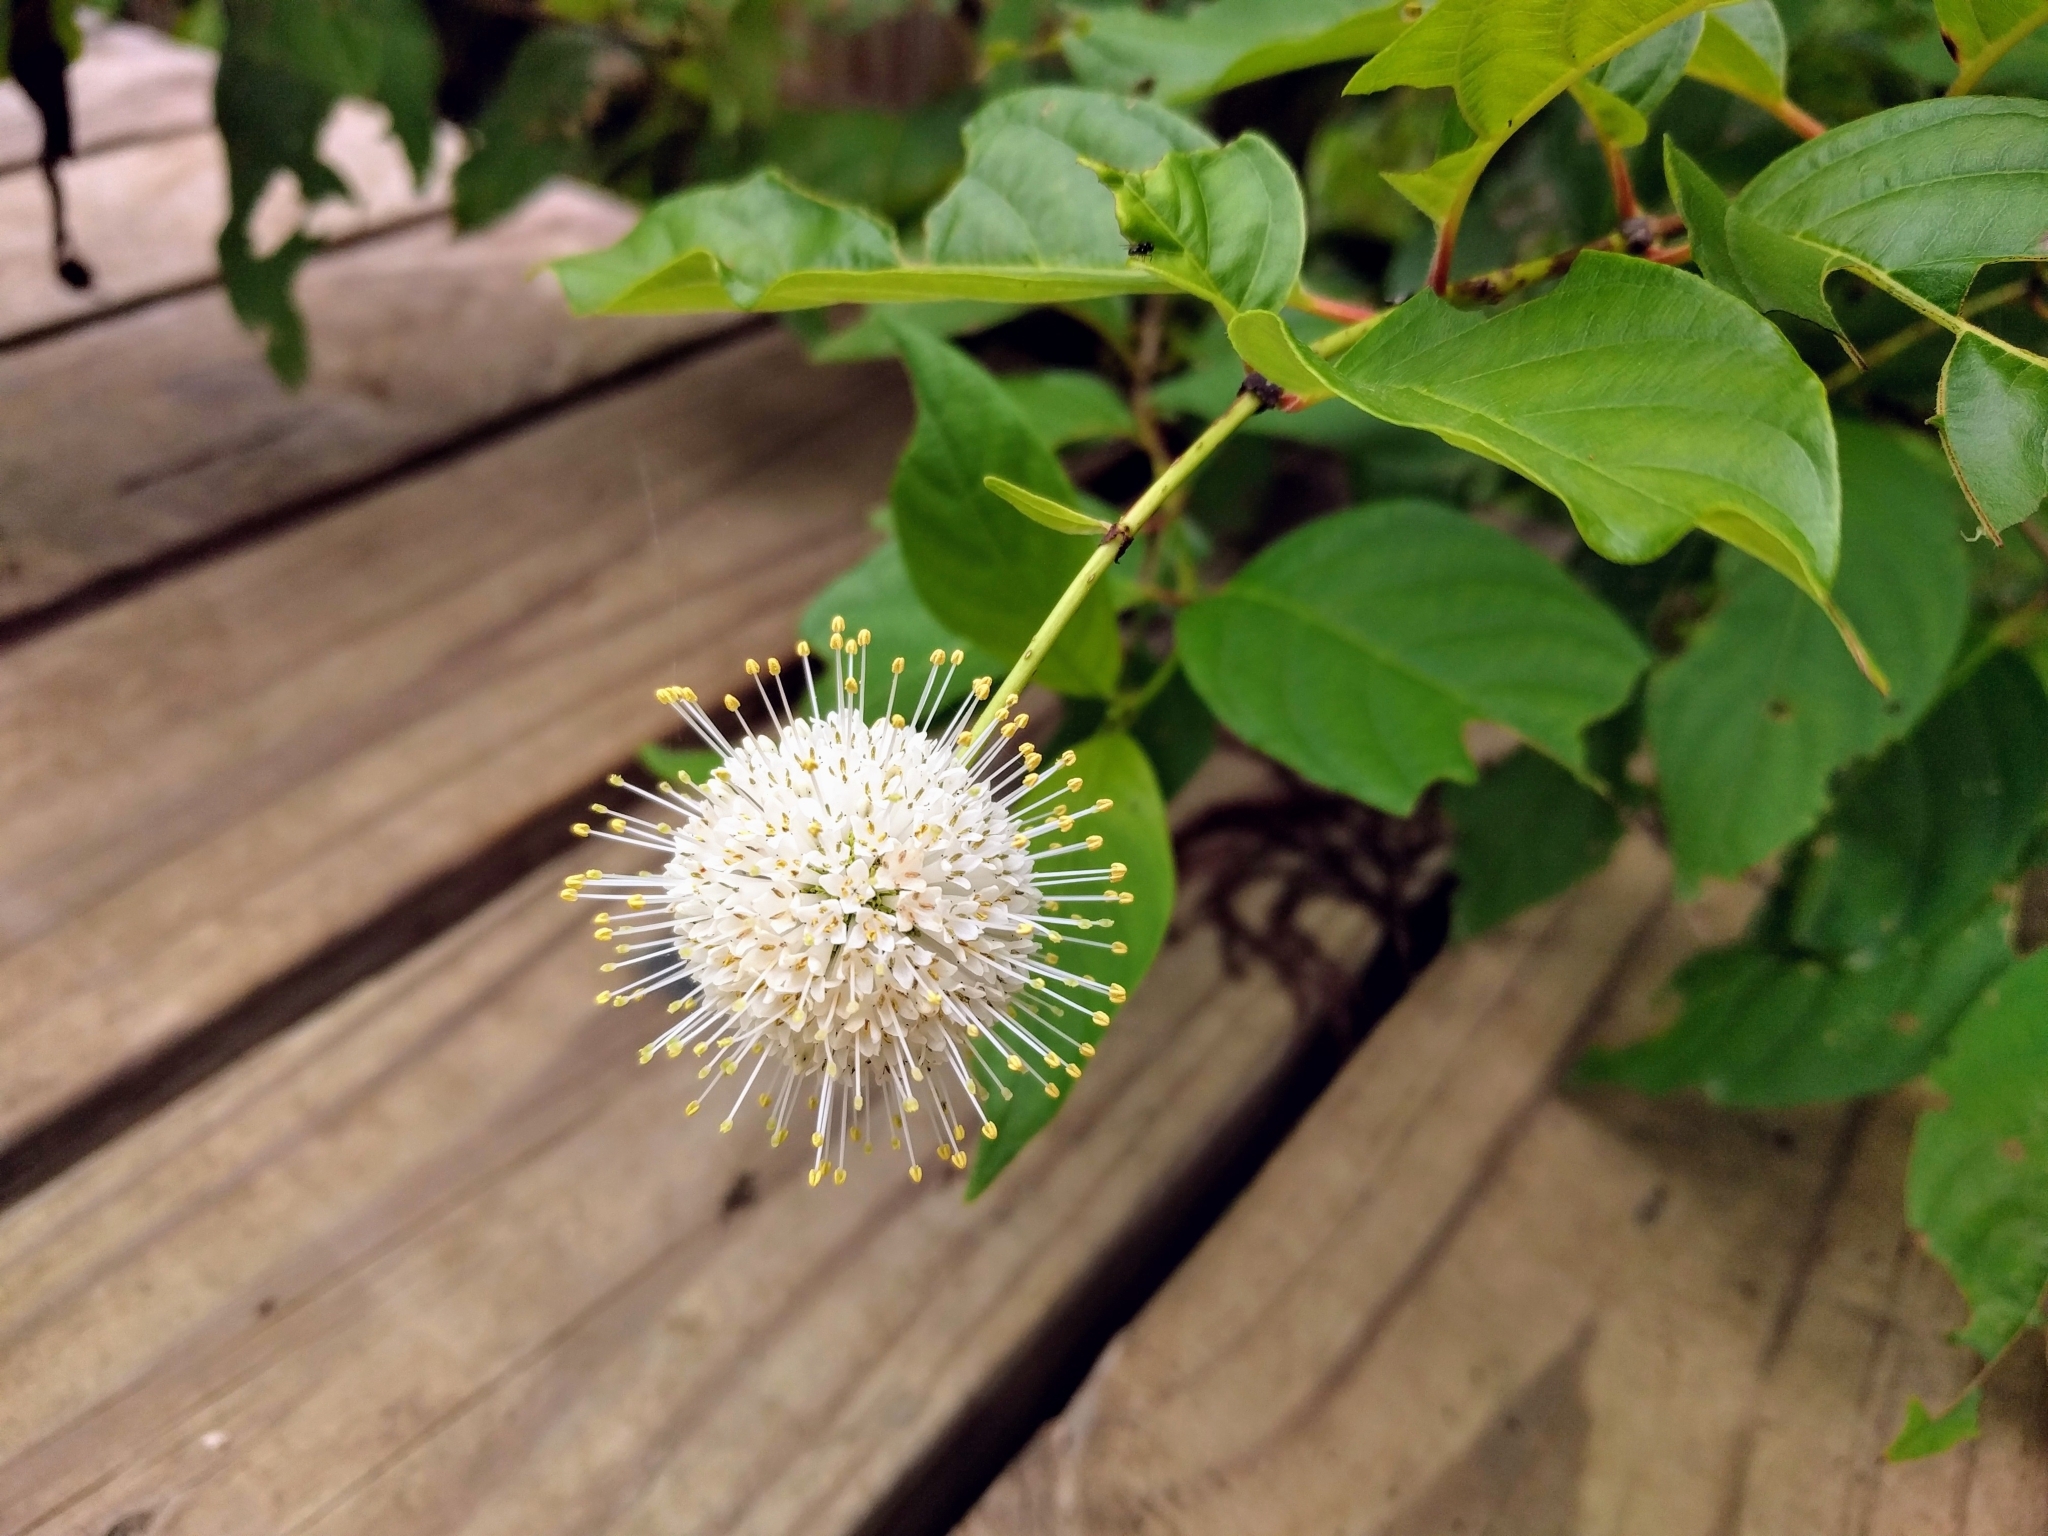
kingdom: Plantae
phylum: Tracheophyta
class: Magnoliopsida
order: Gentianales
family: Rubiaceae
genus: Cephalanthus
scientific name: Cephalanthus occidentalis
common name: Button-willow
